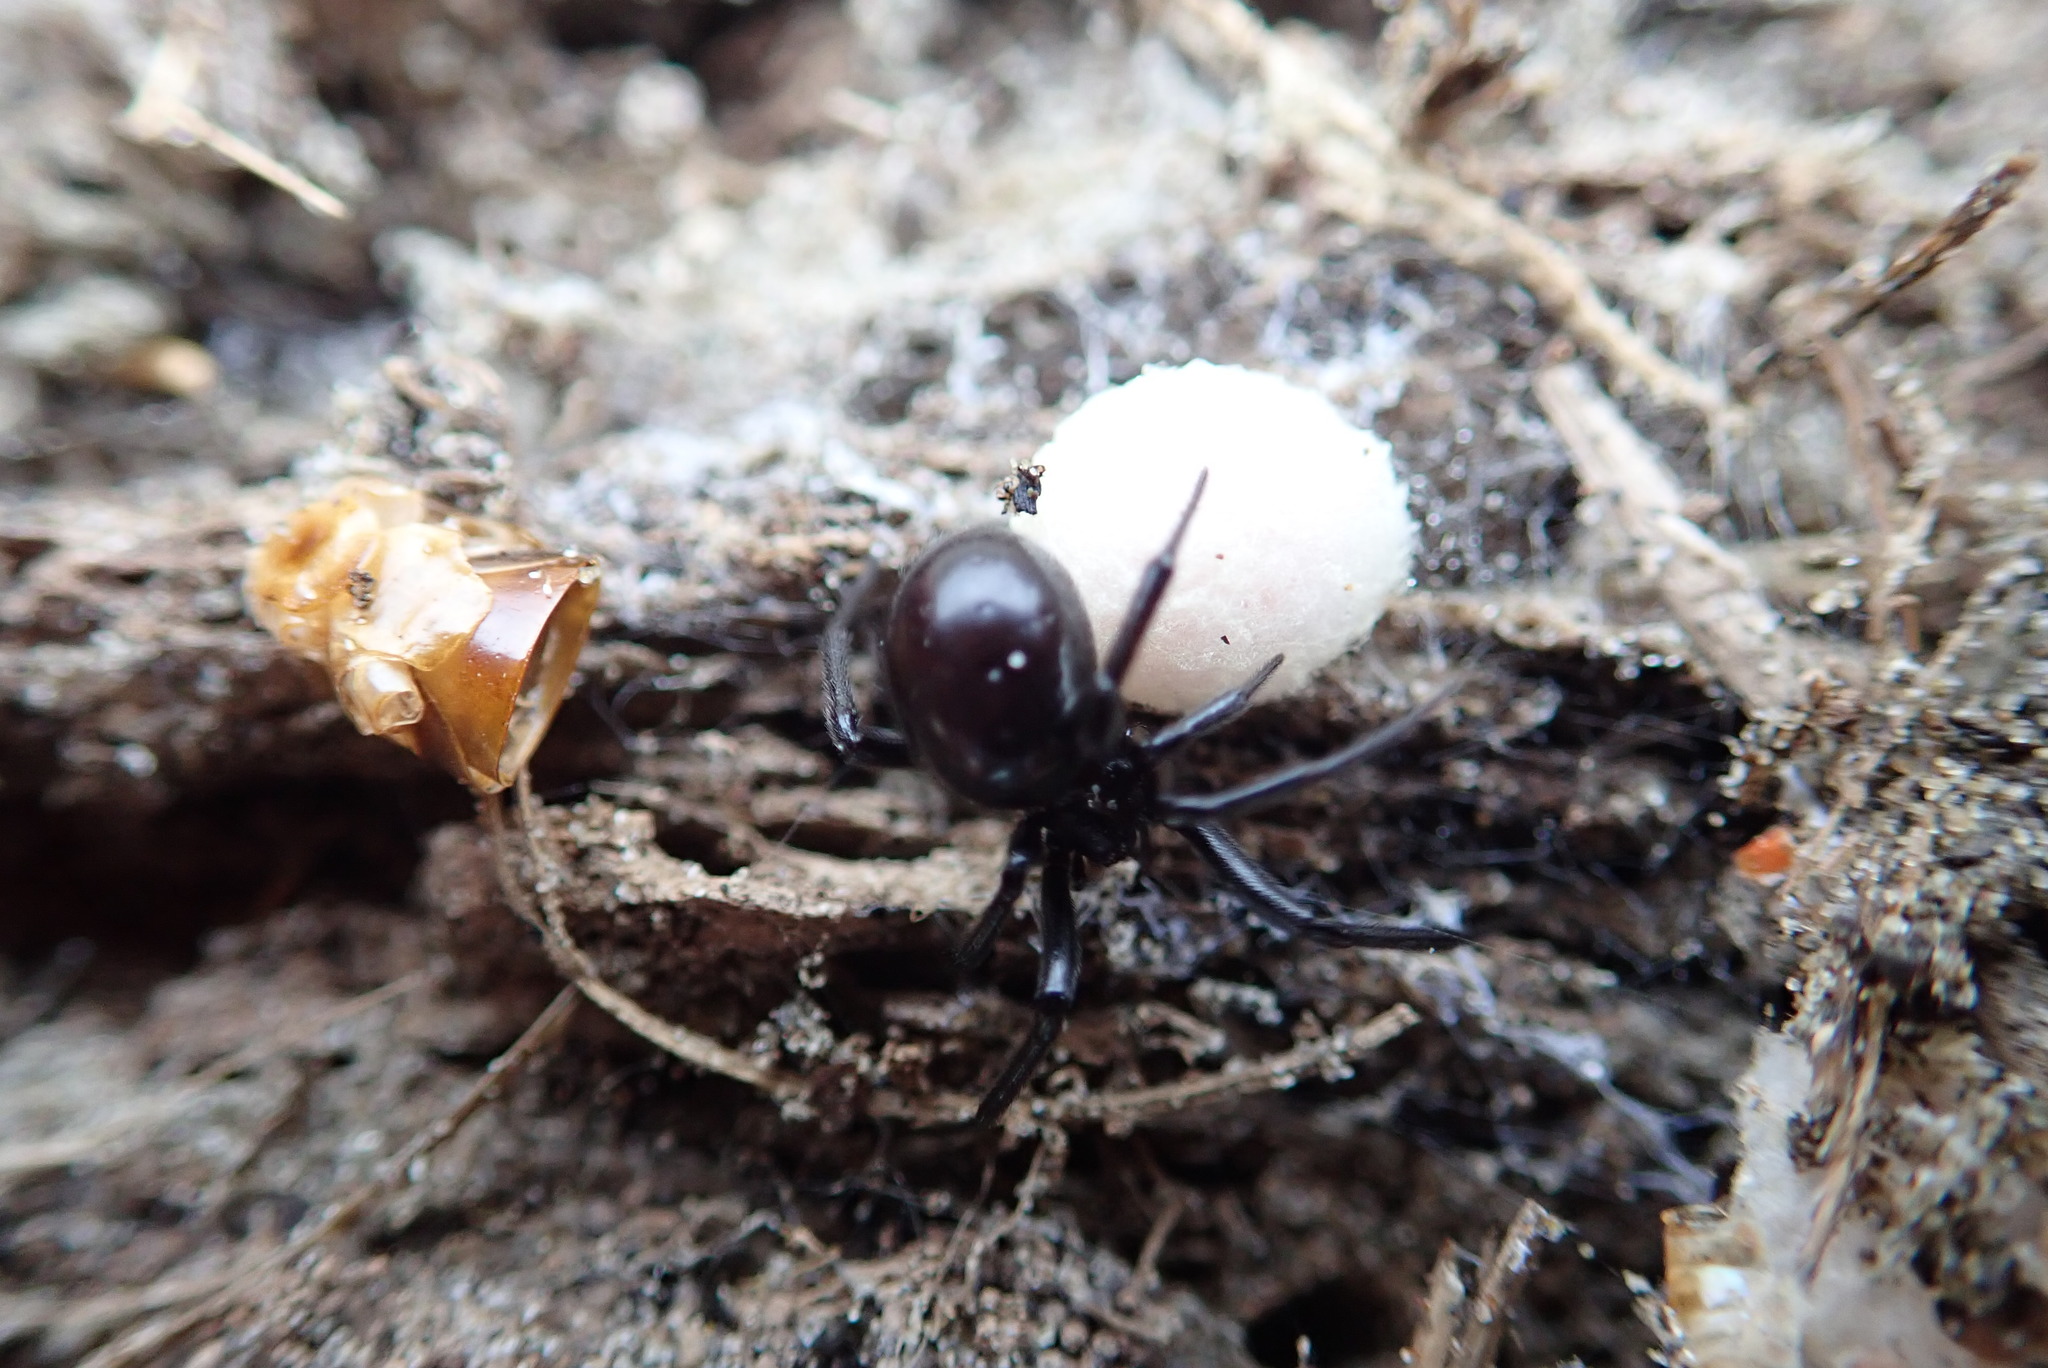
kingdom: Animalia
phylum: Arthropoda
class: Arachnida
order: Araneae
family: Theridiidae
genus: Steatoda
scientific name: Steatoda capensis
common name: Cobweb weaver
